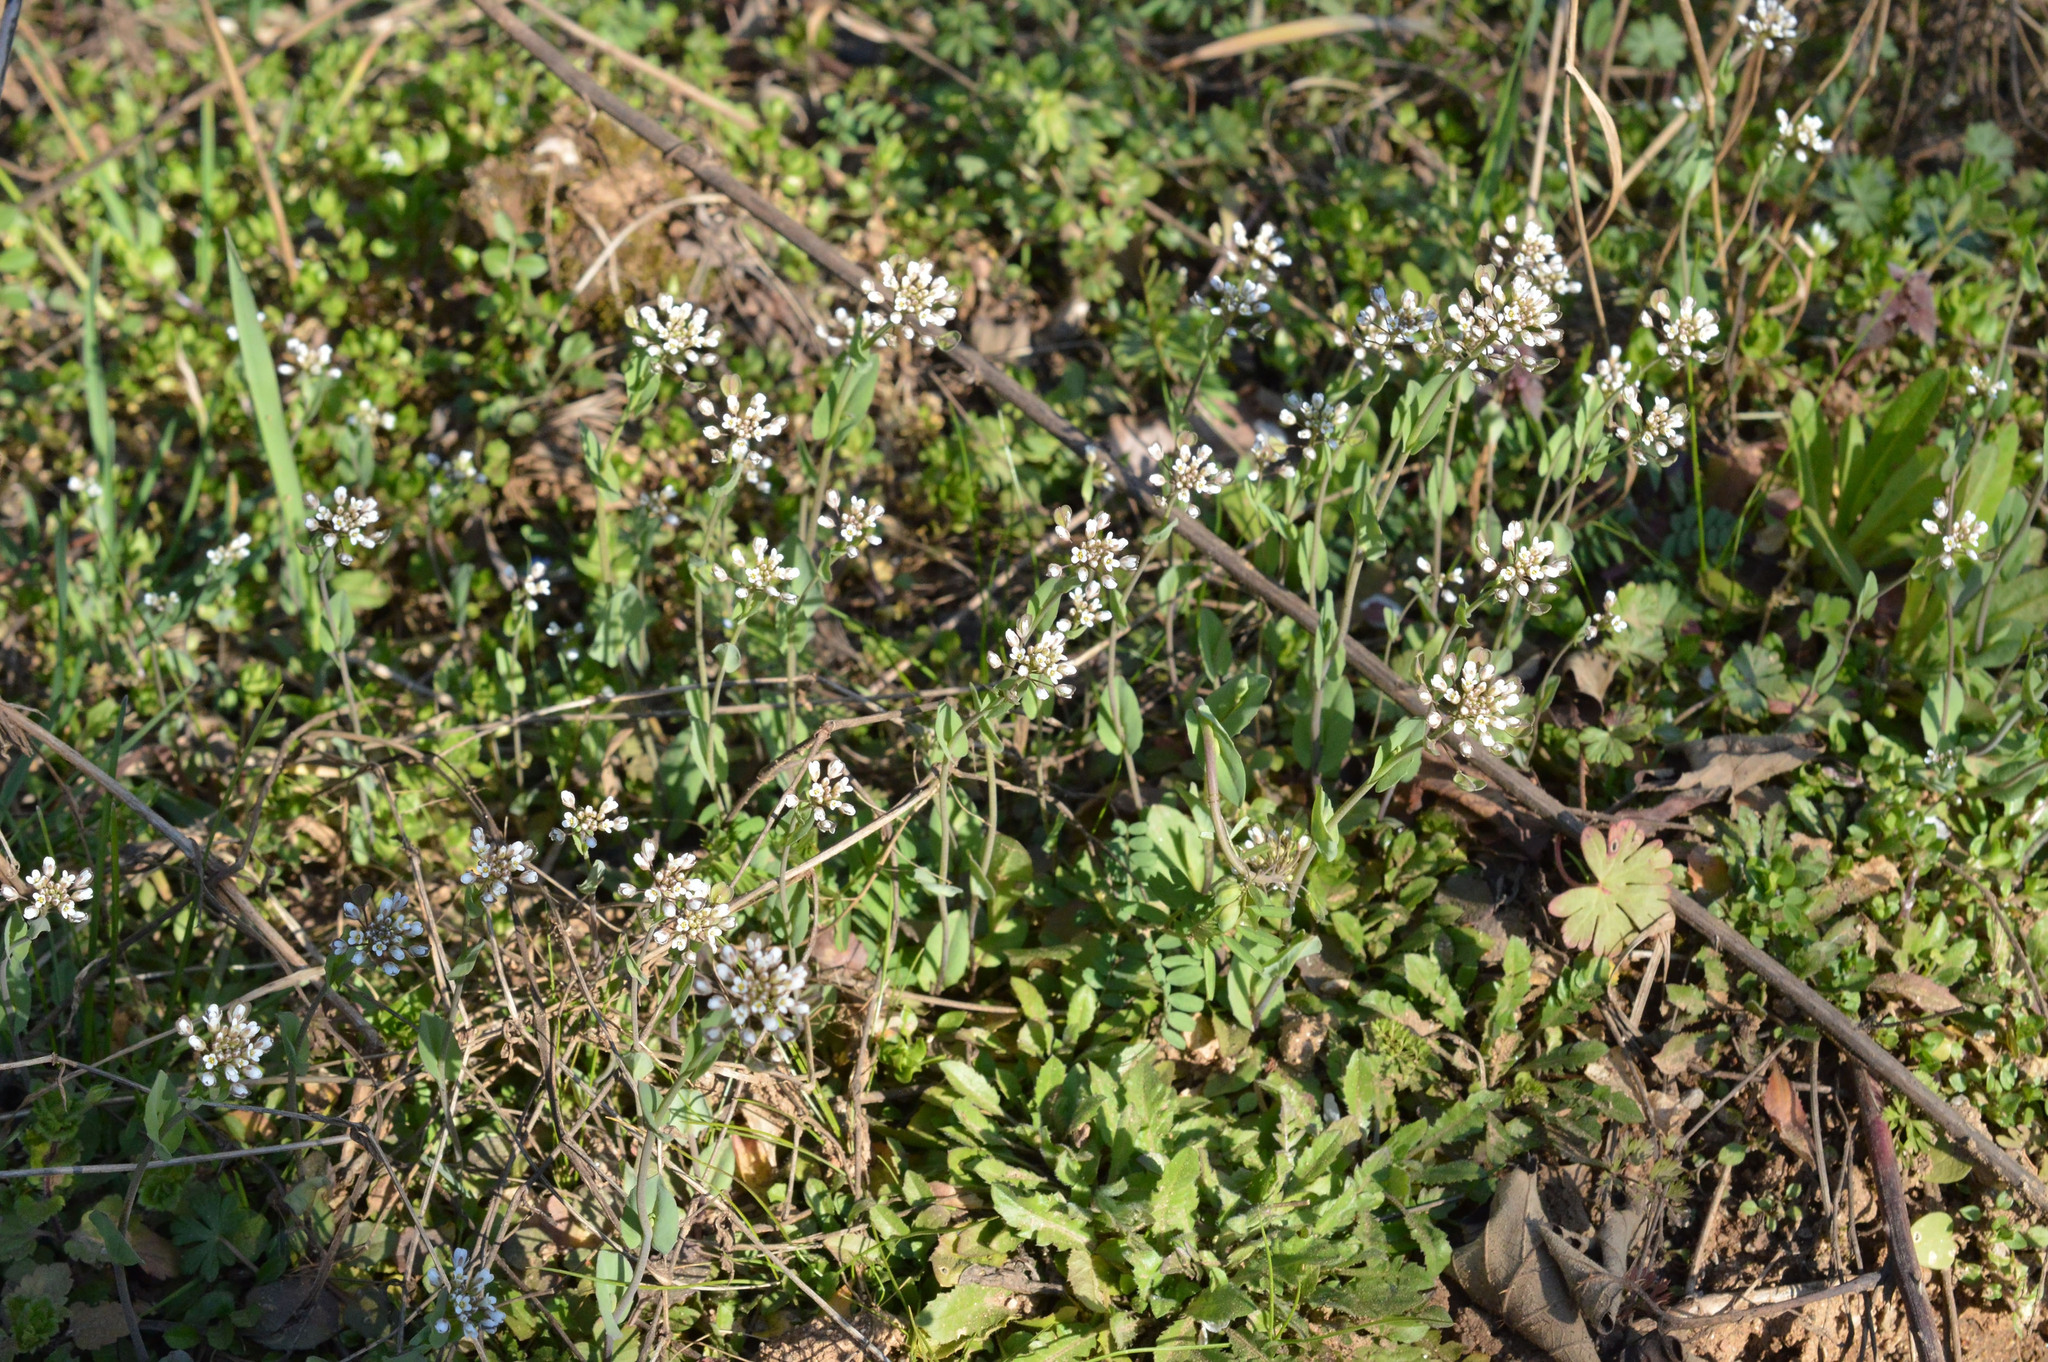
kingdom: Plantae
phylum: Tracheophyta
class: Magnoliopsida
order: Brassicales
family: Brassicaceae
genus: Noccaea
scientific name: Noccaea perfoliata
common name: Perfoliate pennycress
